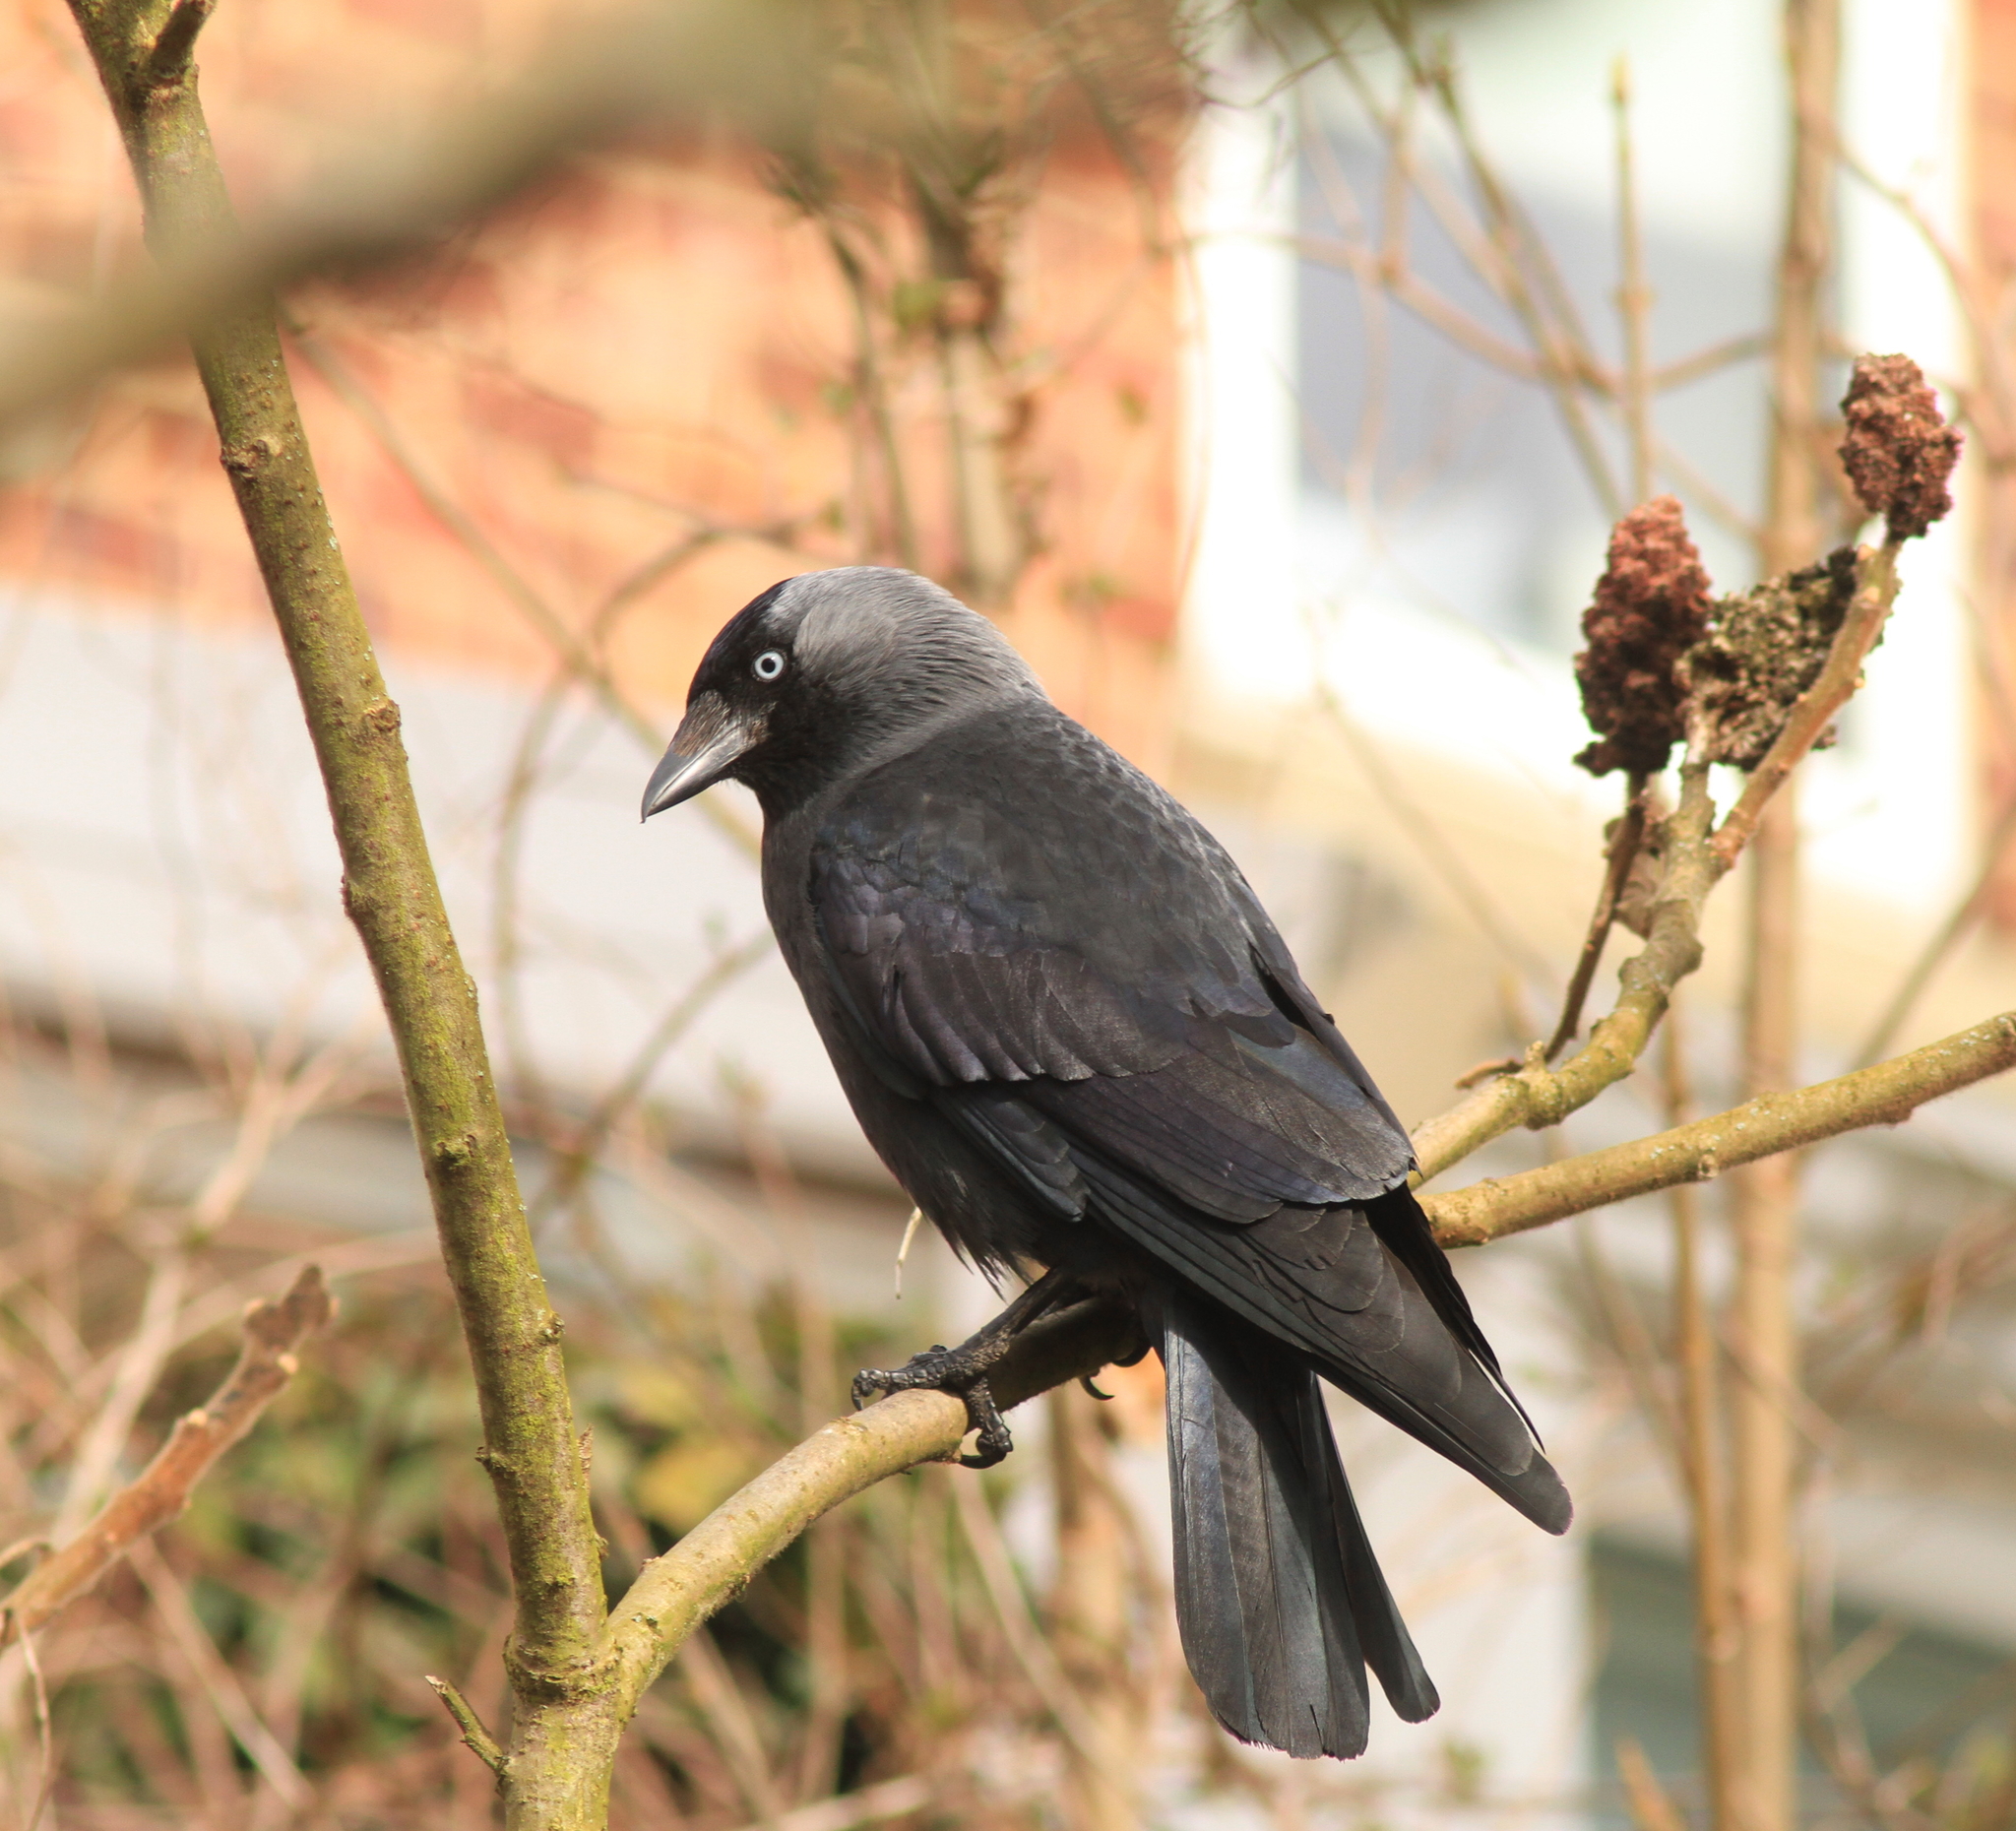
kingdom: Animalia
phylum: Chordata
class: Aves
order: Passeriformes
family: Corvidae
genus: Coloeus
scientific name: Coloeus monedula
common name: Western jackdaw
